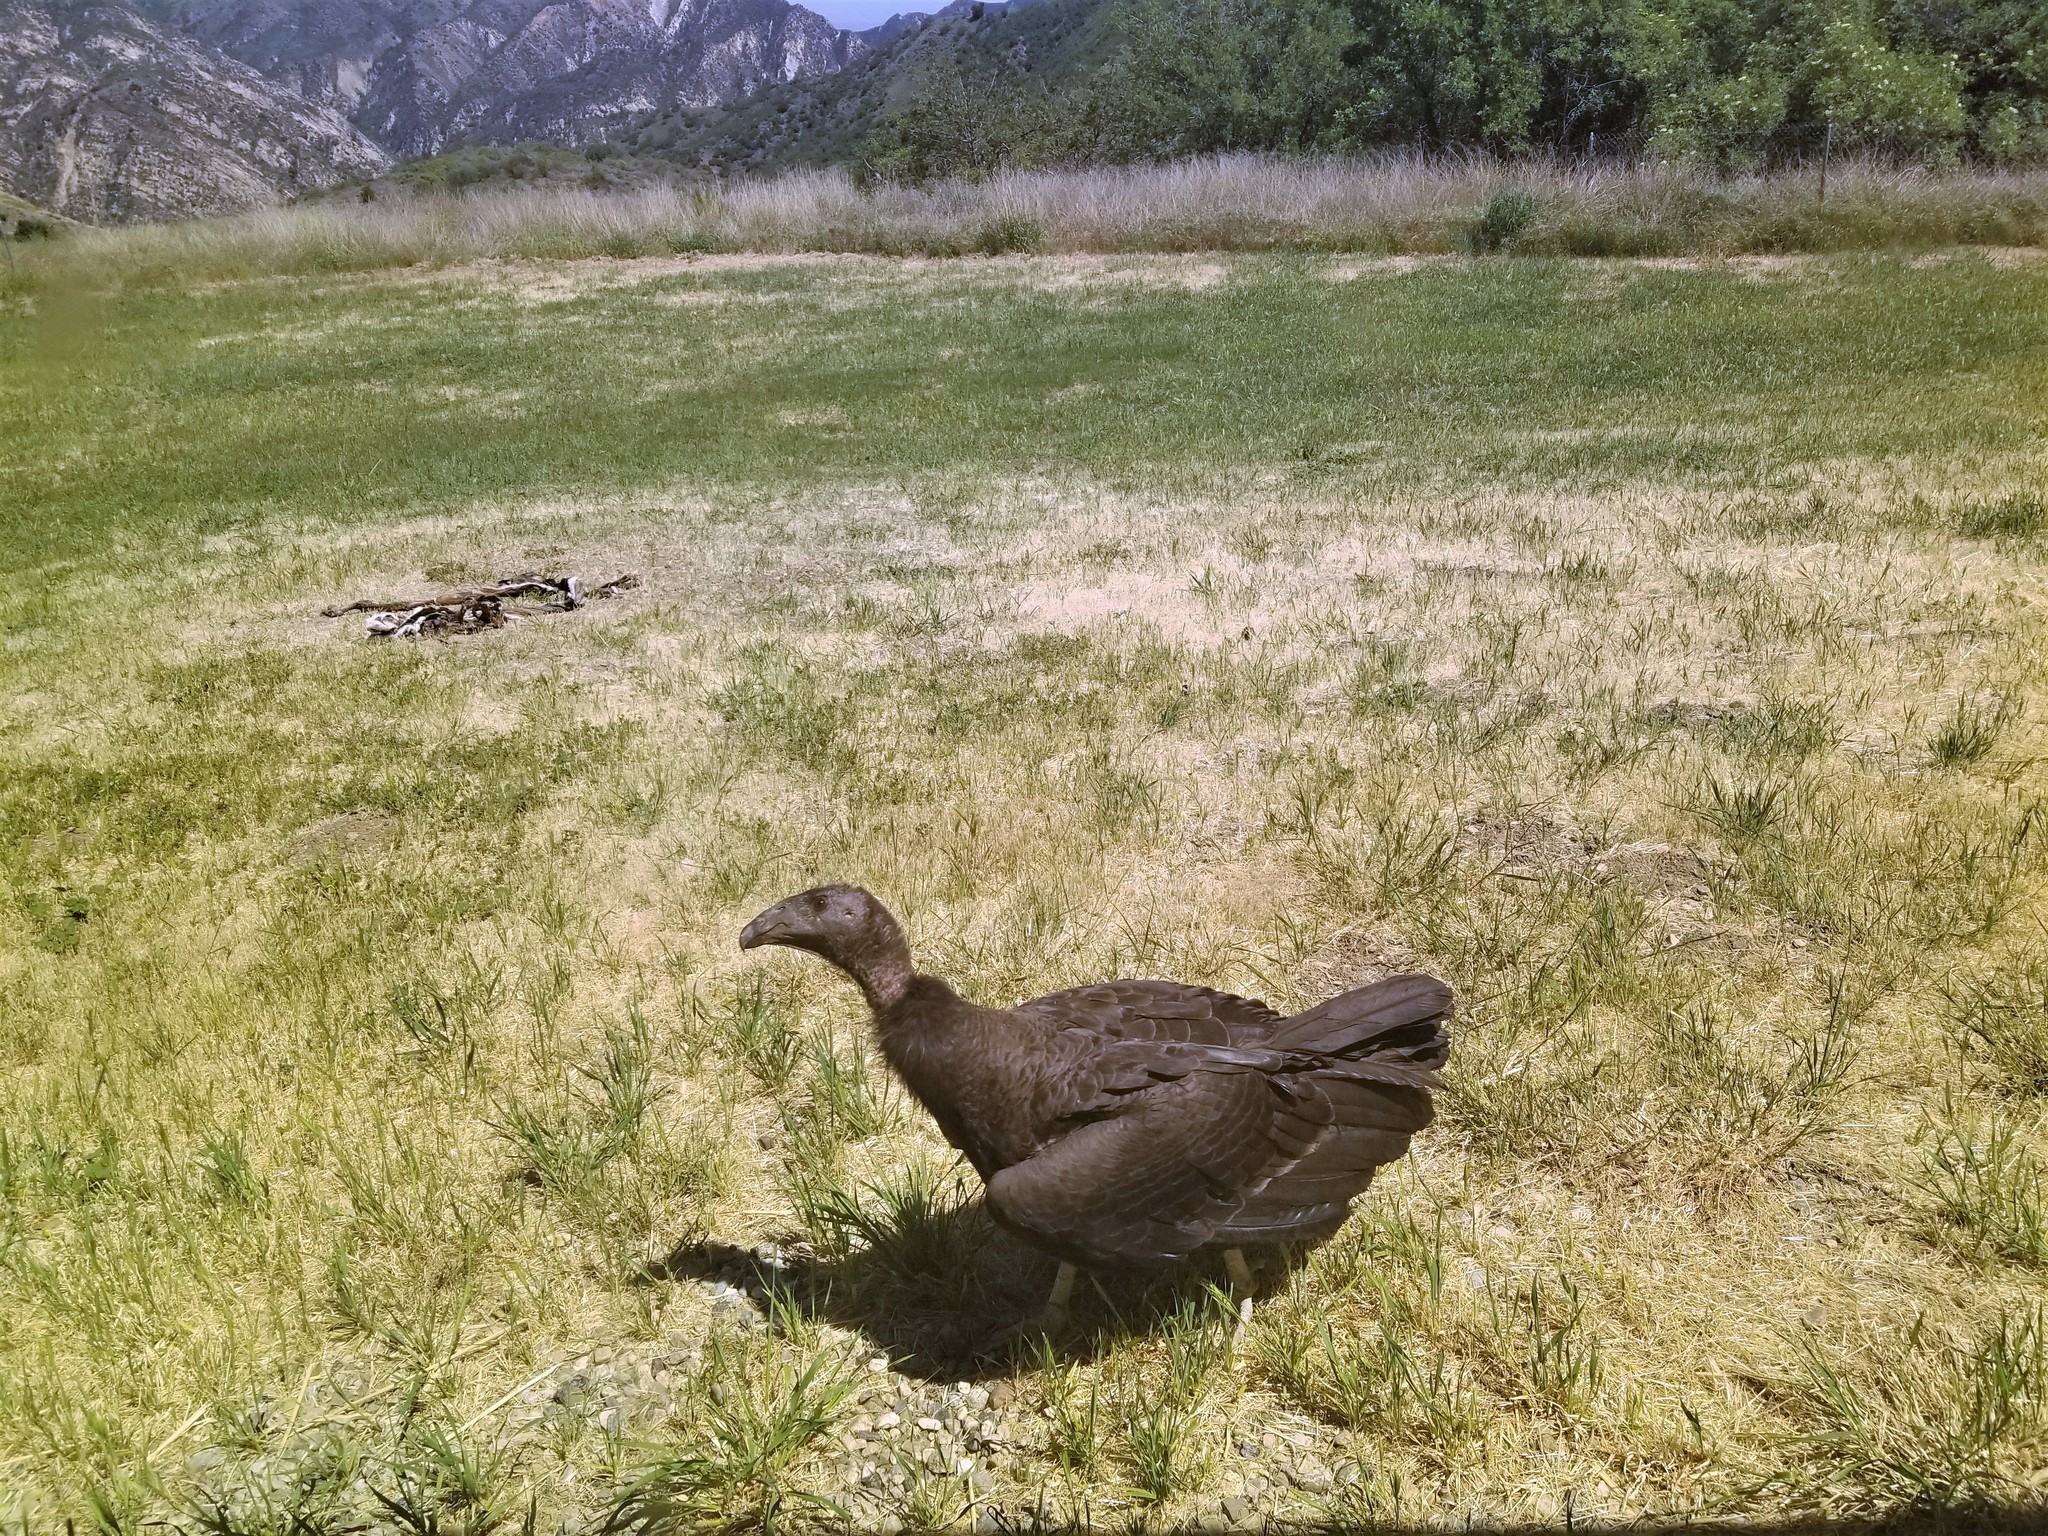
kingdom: Animalia
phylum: Chordata
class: Aves
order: Accipitriformes
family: Cathartidae
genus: Gymnogyps
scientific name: Gymnogyps californianus
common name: California condor
